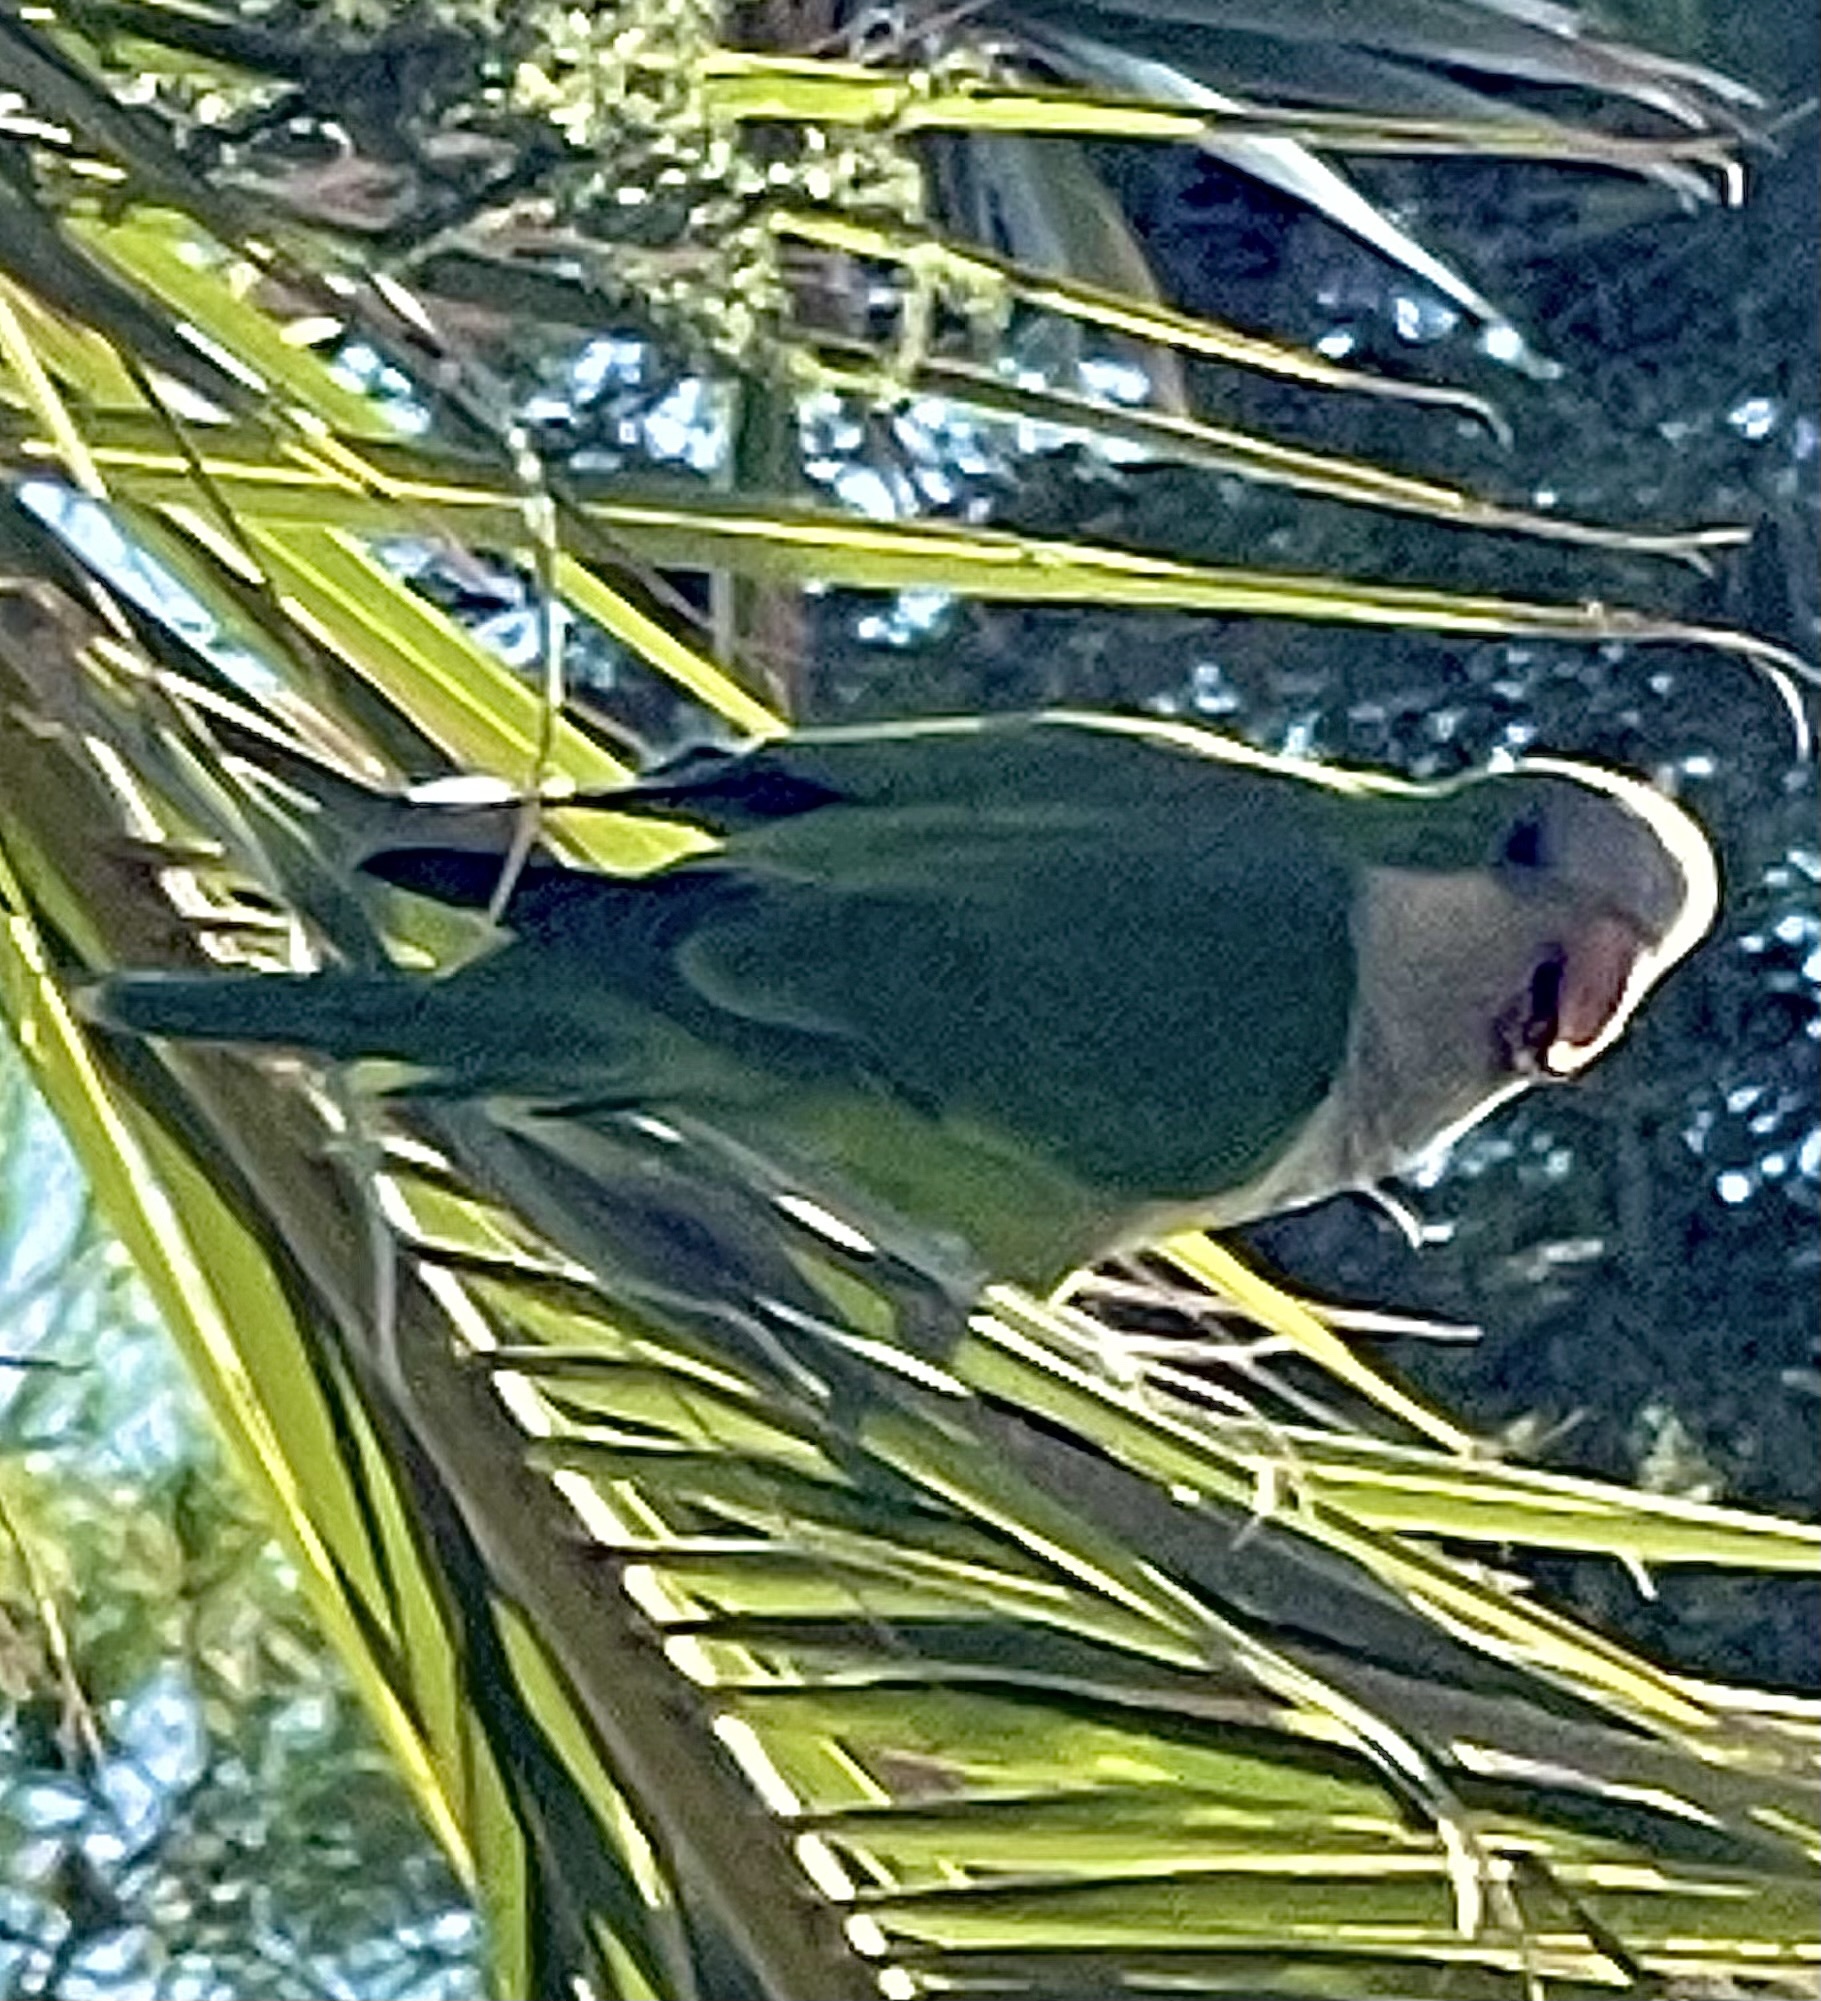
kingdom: Animalia
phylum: Chordata
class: Aves
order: Psittaciformes
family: Psittacidae
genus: Myiopsitta
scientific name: Myiopsitta monachus
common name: Monk parakeet
